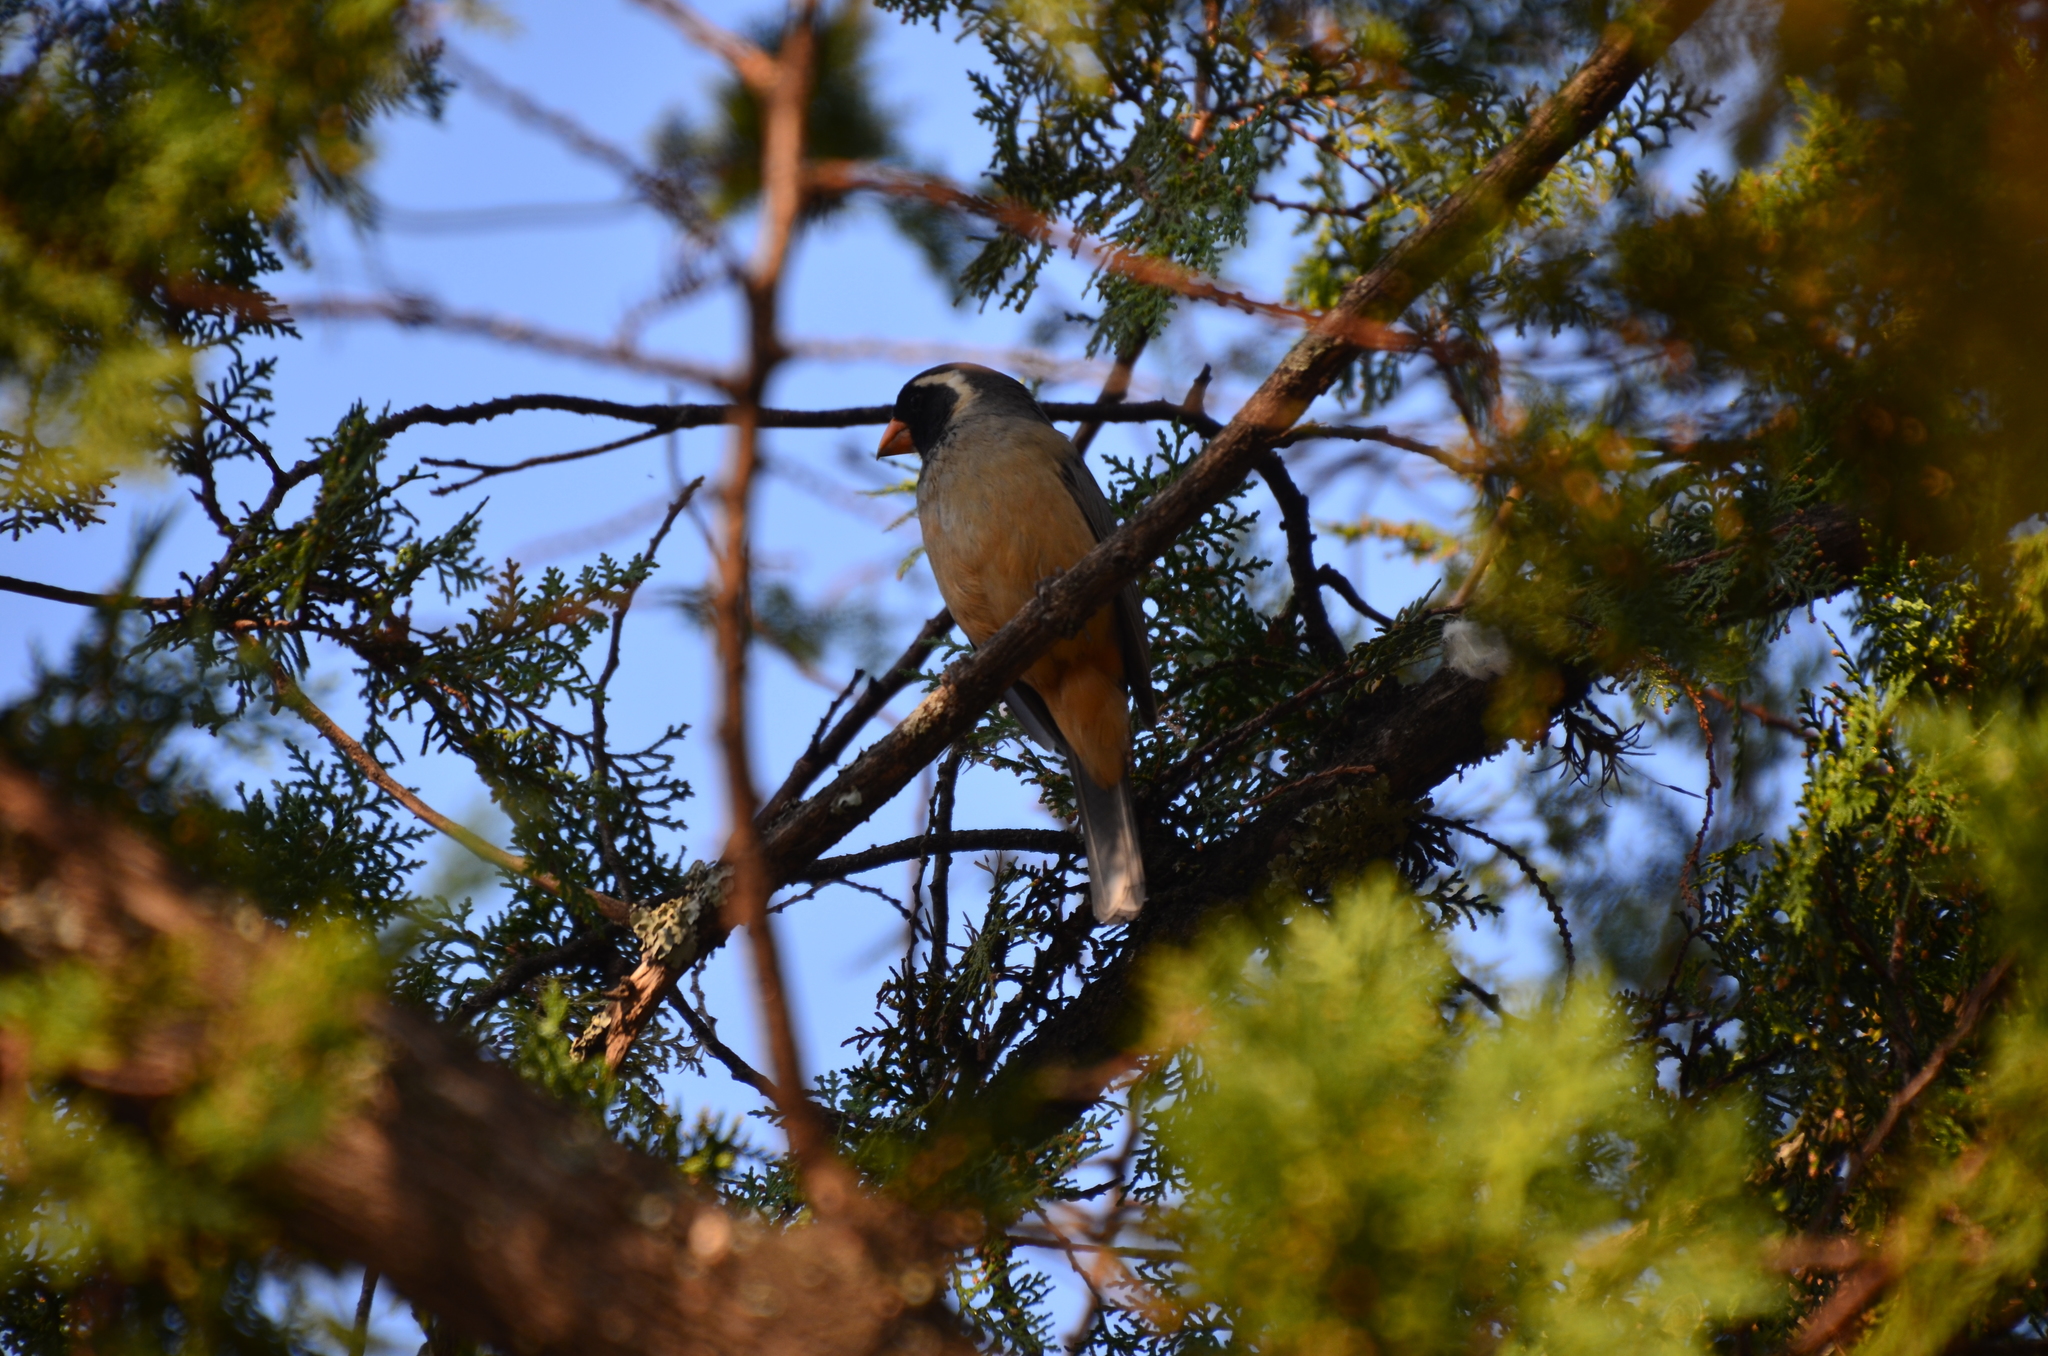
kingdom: Animalia
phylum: Chordata
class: Aves
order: Passeriformes
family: Thraupidae
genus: Saltator
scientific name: Saltator aurantiirostris
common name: Golden-billed saltator
